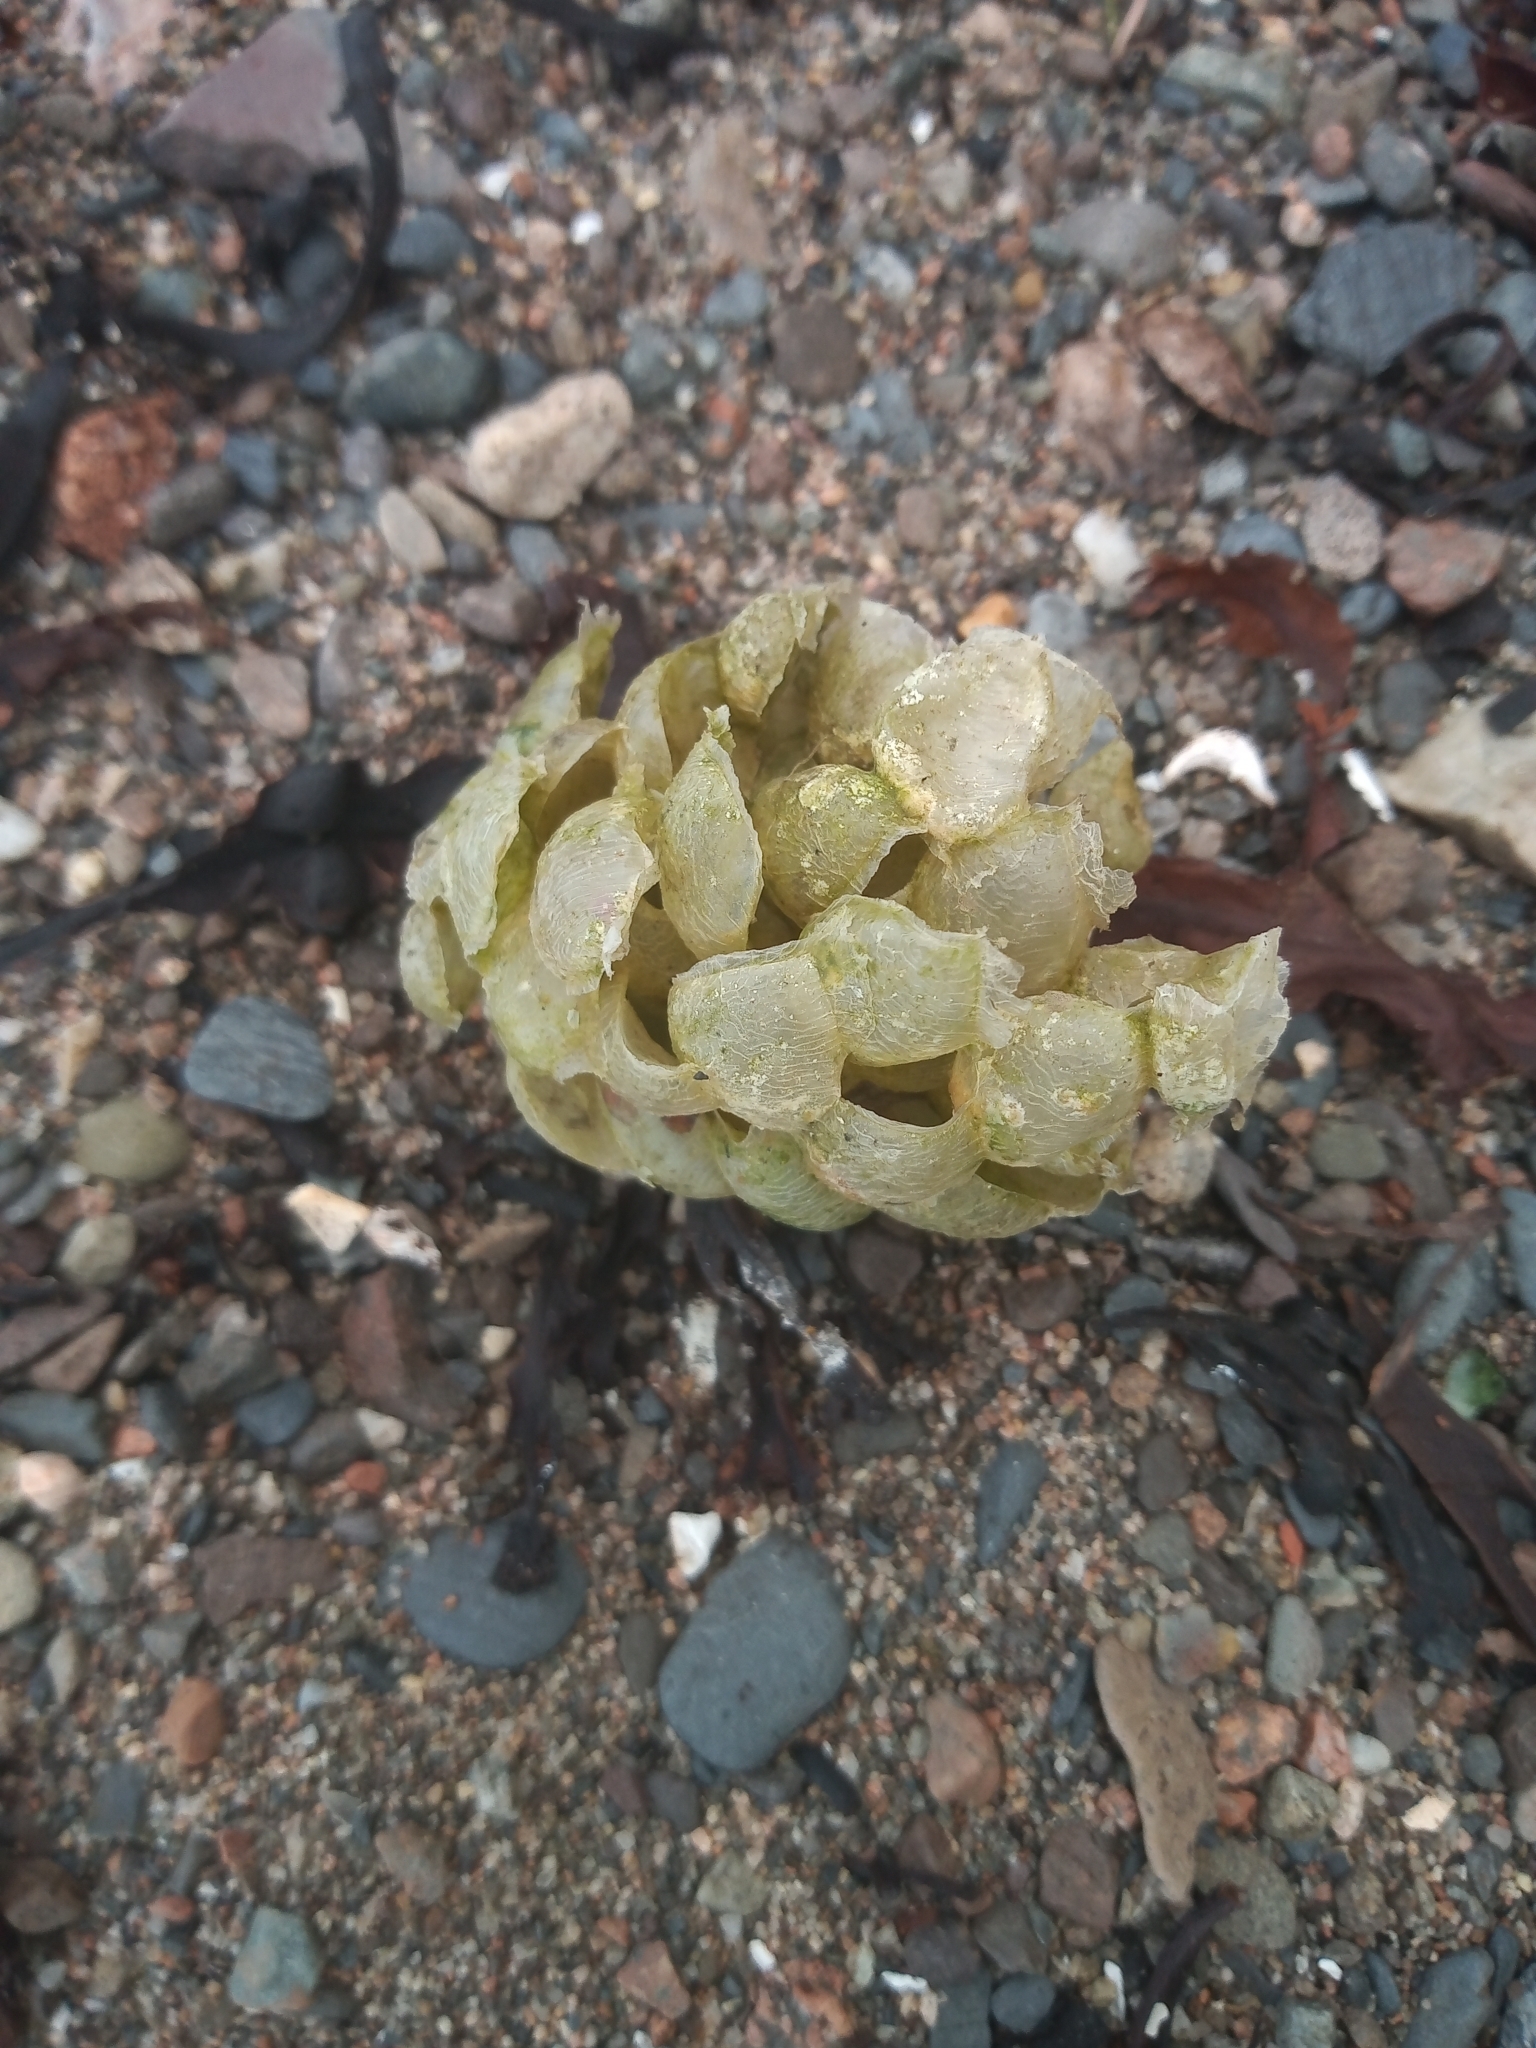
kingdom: Animalia
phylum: Mollusca
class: Gastropoda
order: Neogastropoda
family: Buccinidae
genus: Buccinum
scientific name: Buccinum undatum
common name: Common whelk
